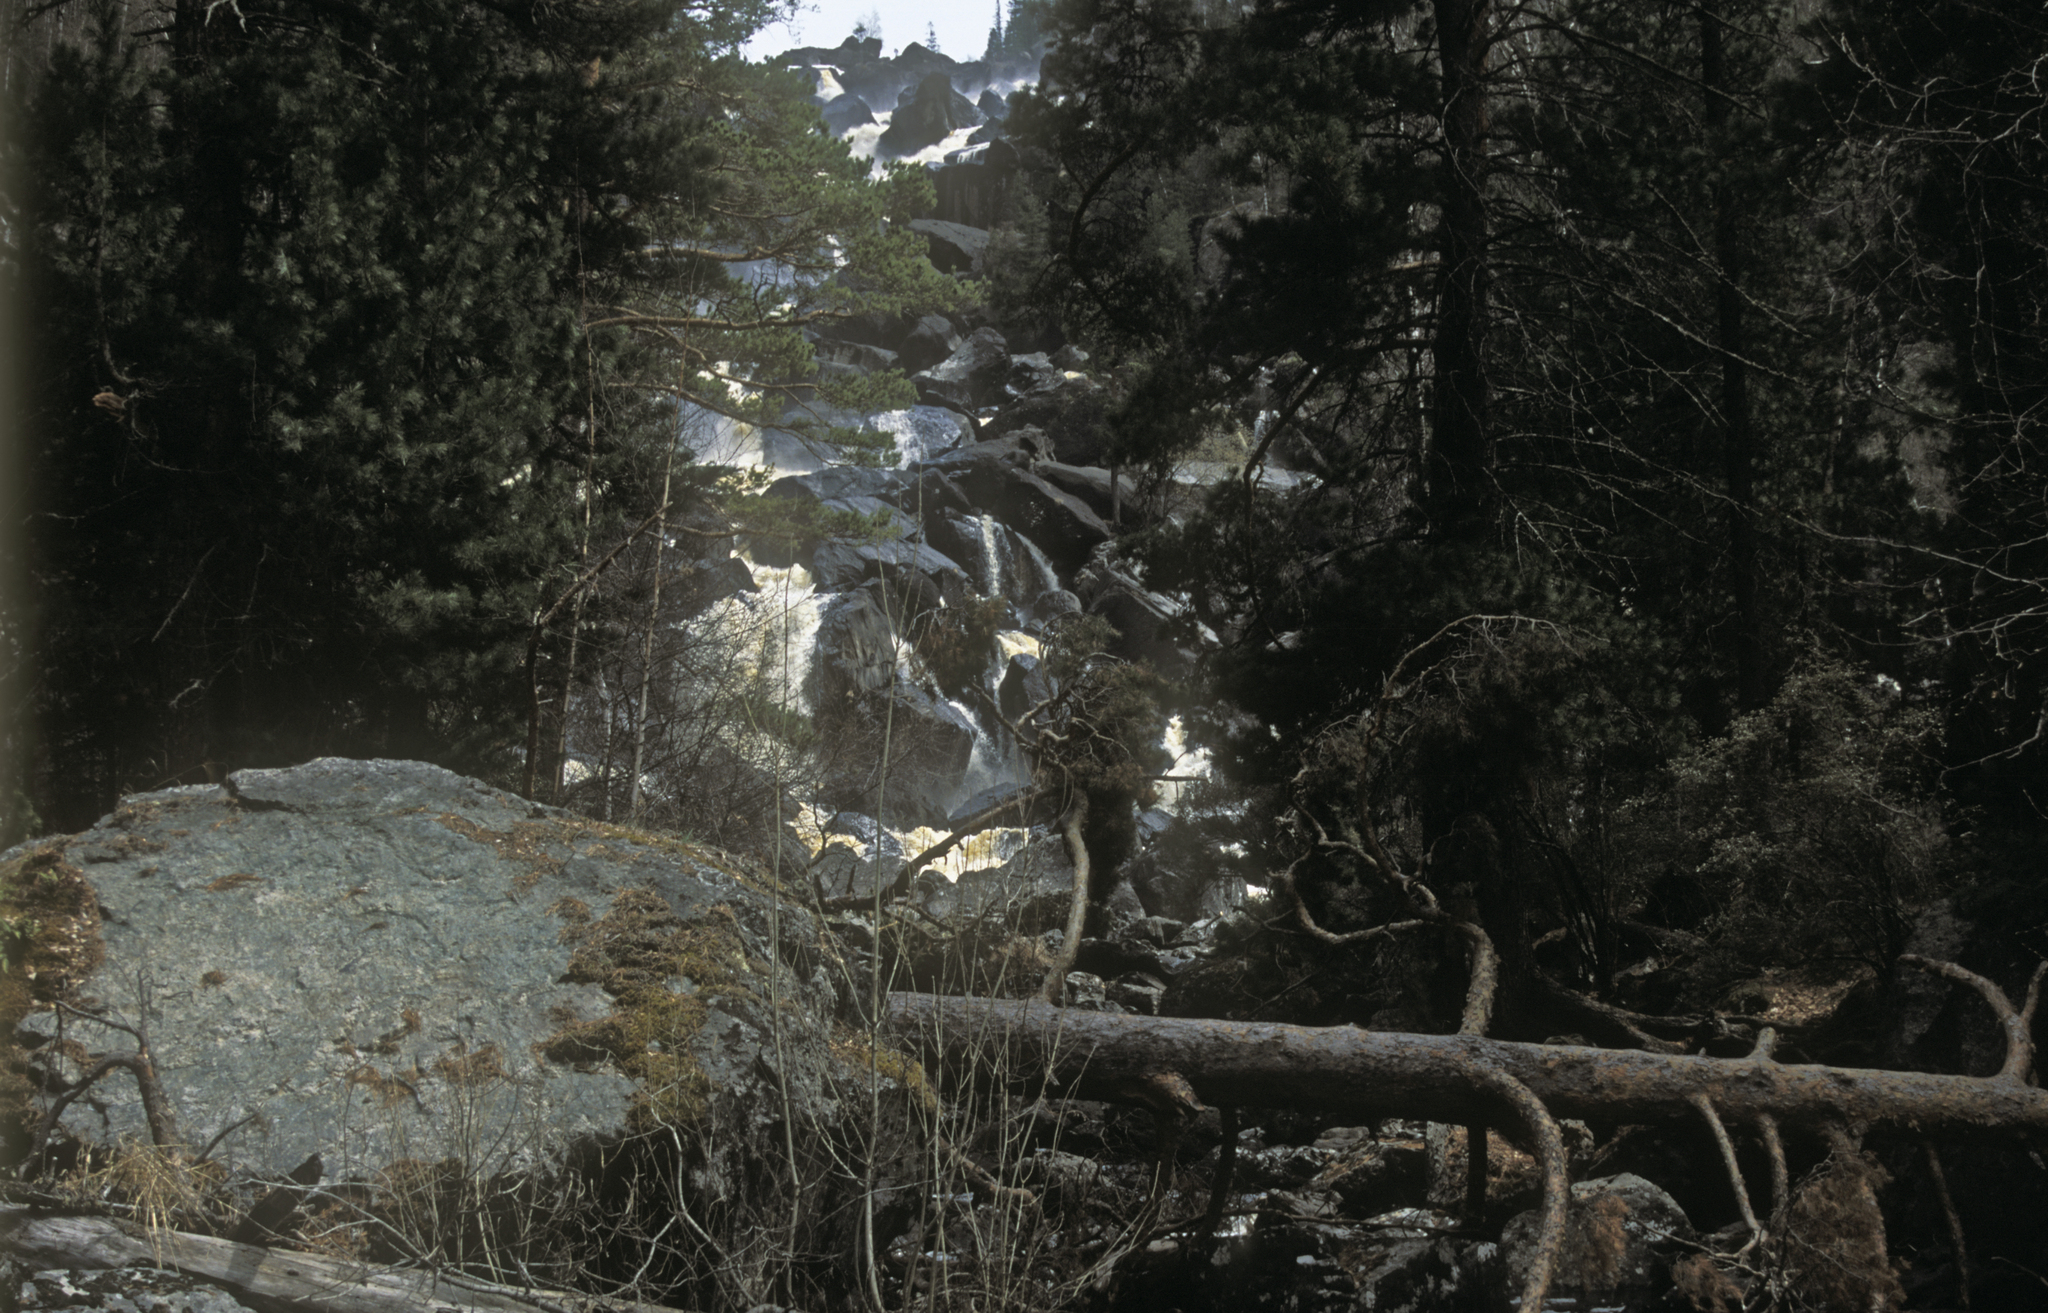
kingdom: Plantae
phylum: Tracheophyta
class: Pinopsida
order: Pinales
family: Pinaceae
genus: Pinus
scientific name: Pinus sylvestris
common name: Scots pine
